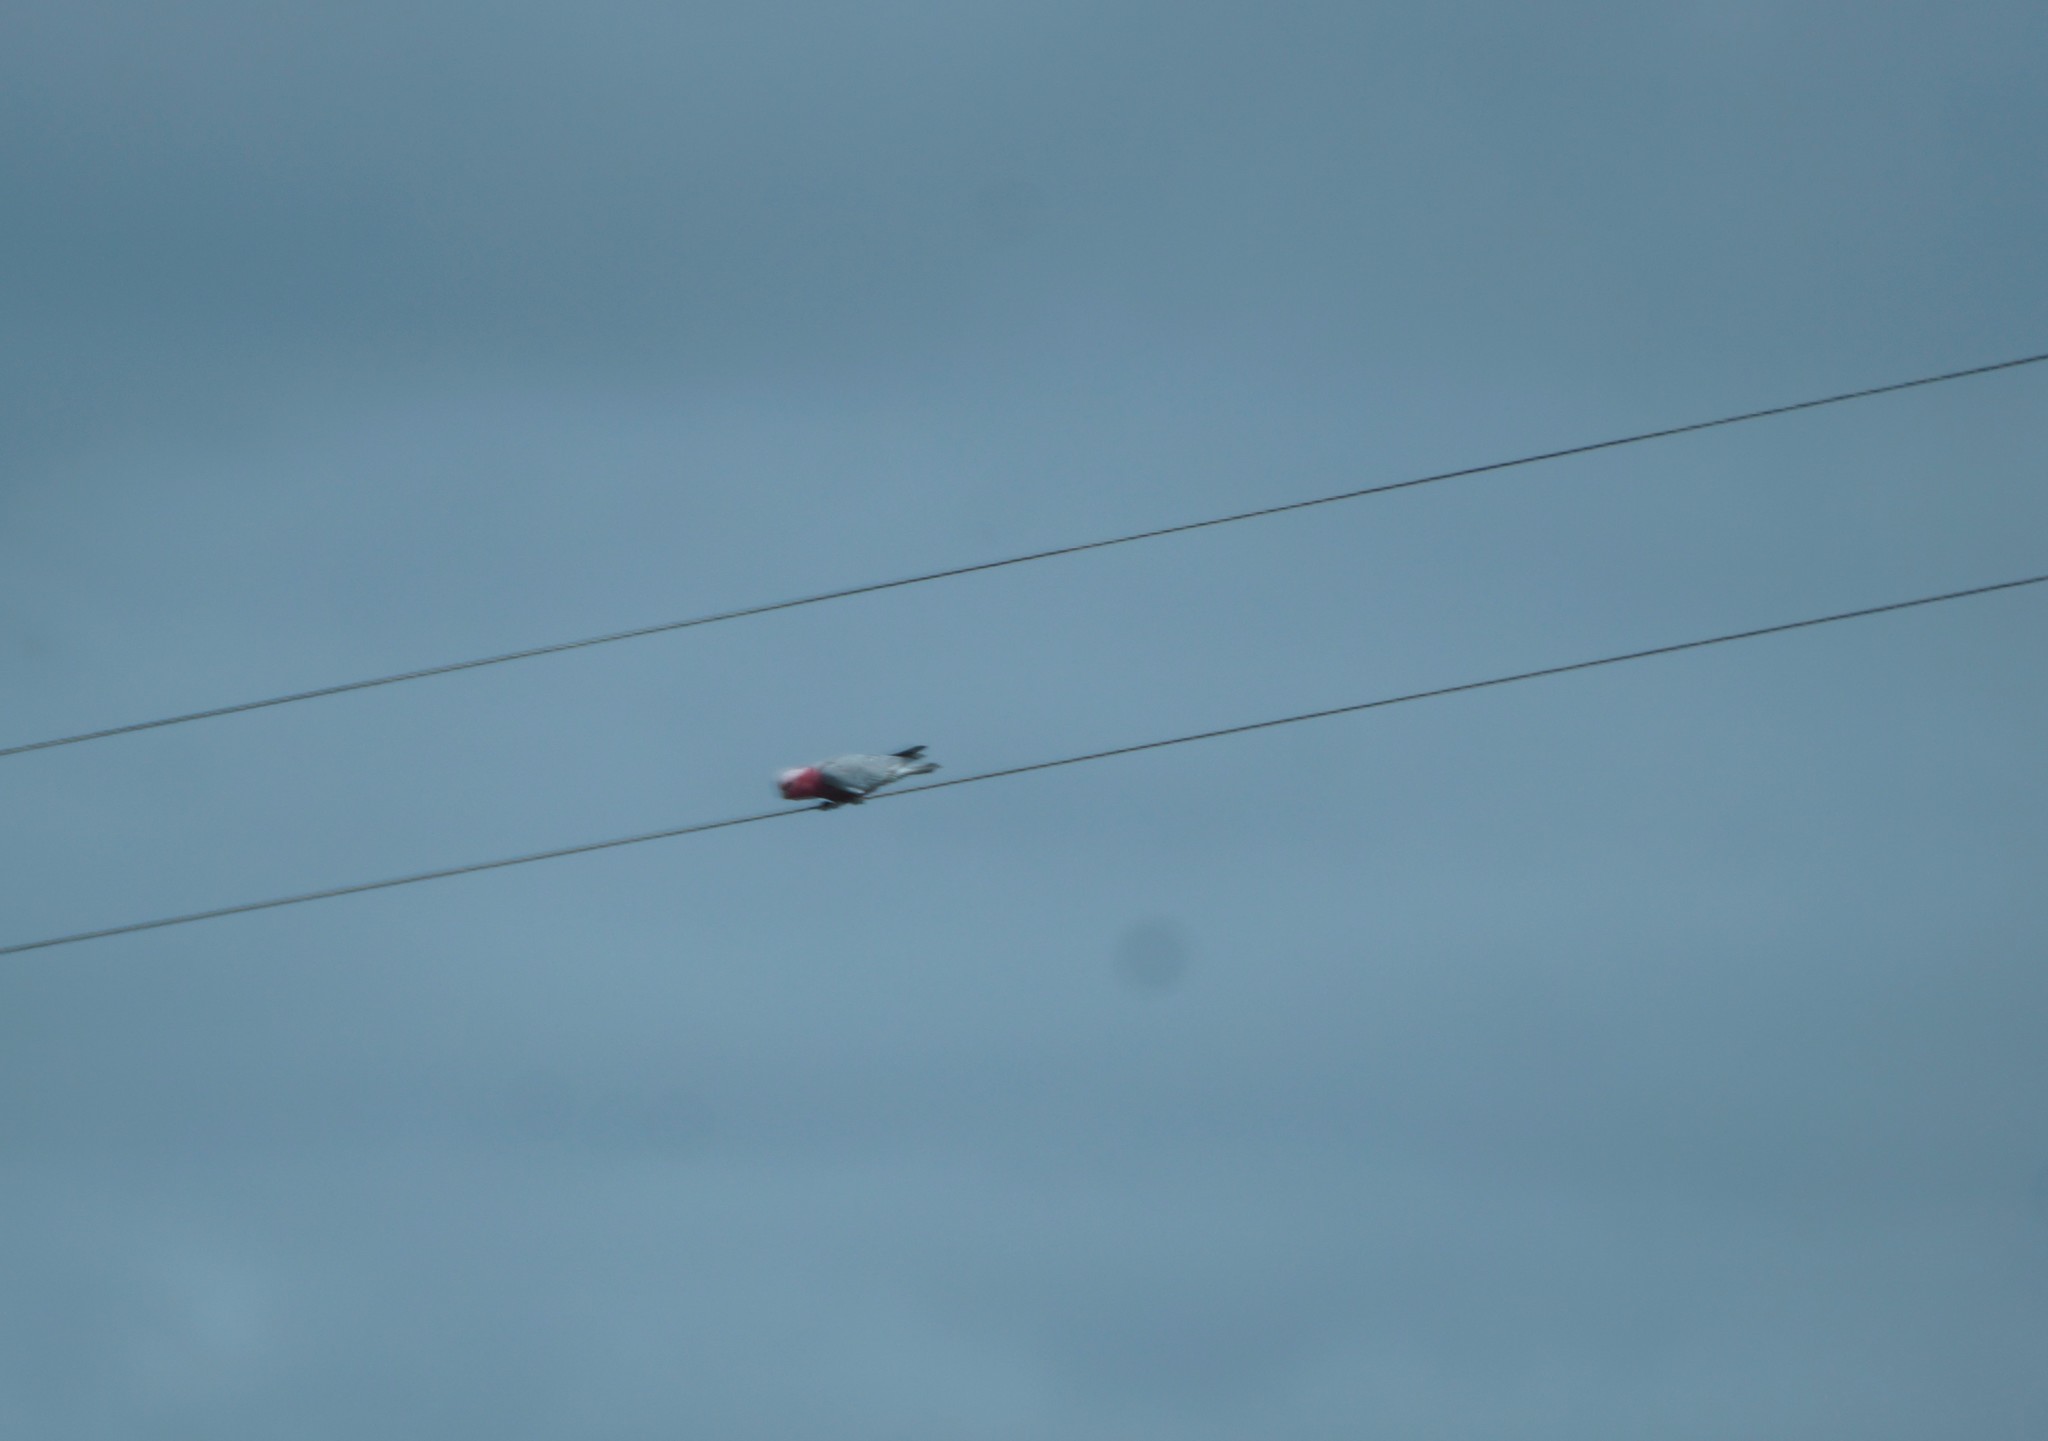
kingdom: Animalia
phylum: Chordata
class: Aves
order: Psittaciformes
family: Psittacidae
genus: Eolophus
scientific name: Eolophus roseicapilla
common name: Galah
